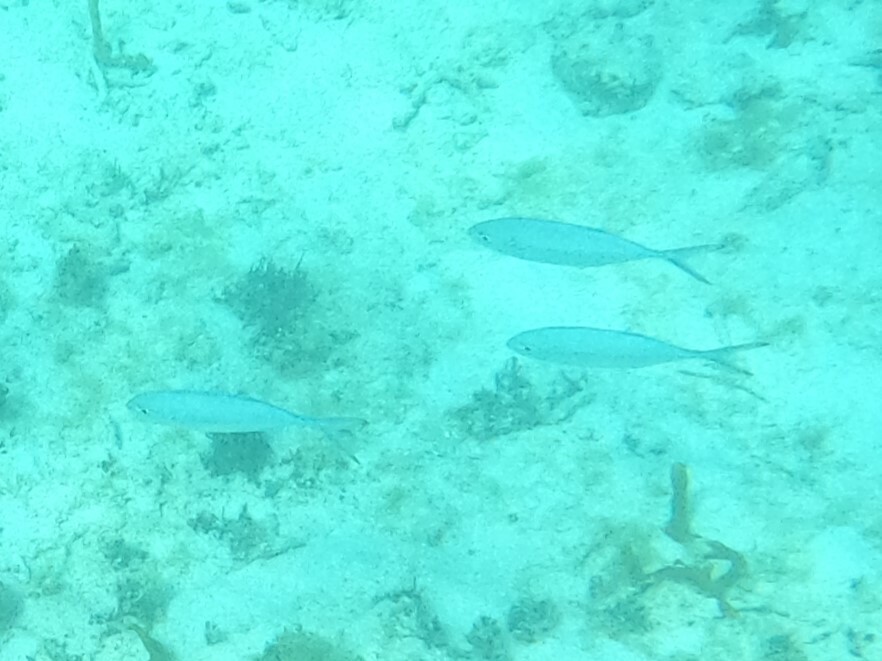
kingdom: Animalia
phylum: Chordata
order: Perciformes
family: Carangidae
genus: Caranx
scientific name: Caranx crysos
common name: Blue runner
